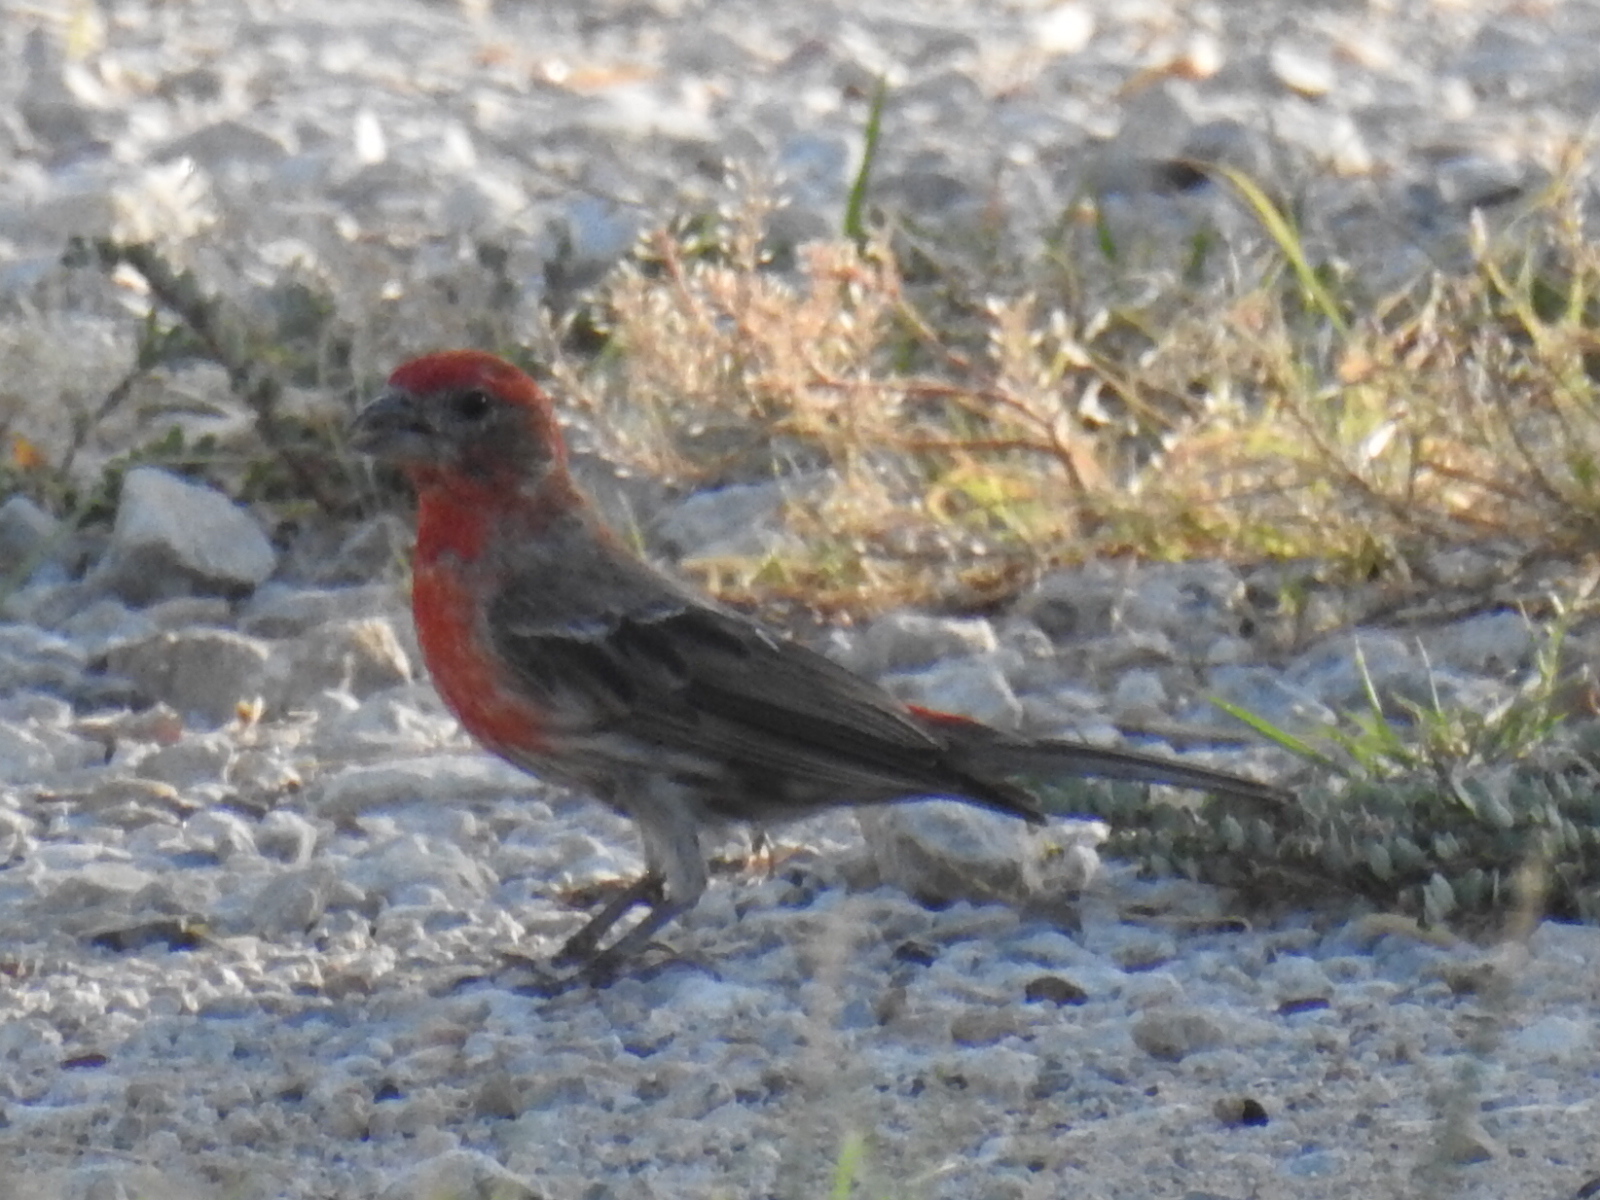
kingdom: Animalia
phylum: Chordata
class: Aves
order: Passeriformes
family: Fringillidae
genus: Haemorhous
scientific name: Haemorhous mexicanus
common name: House finch
